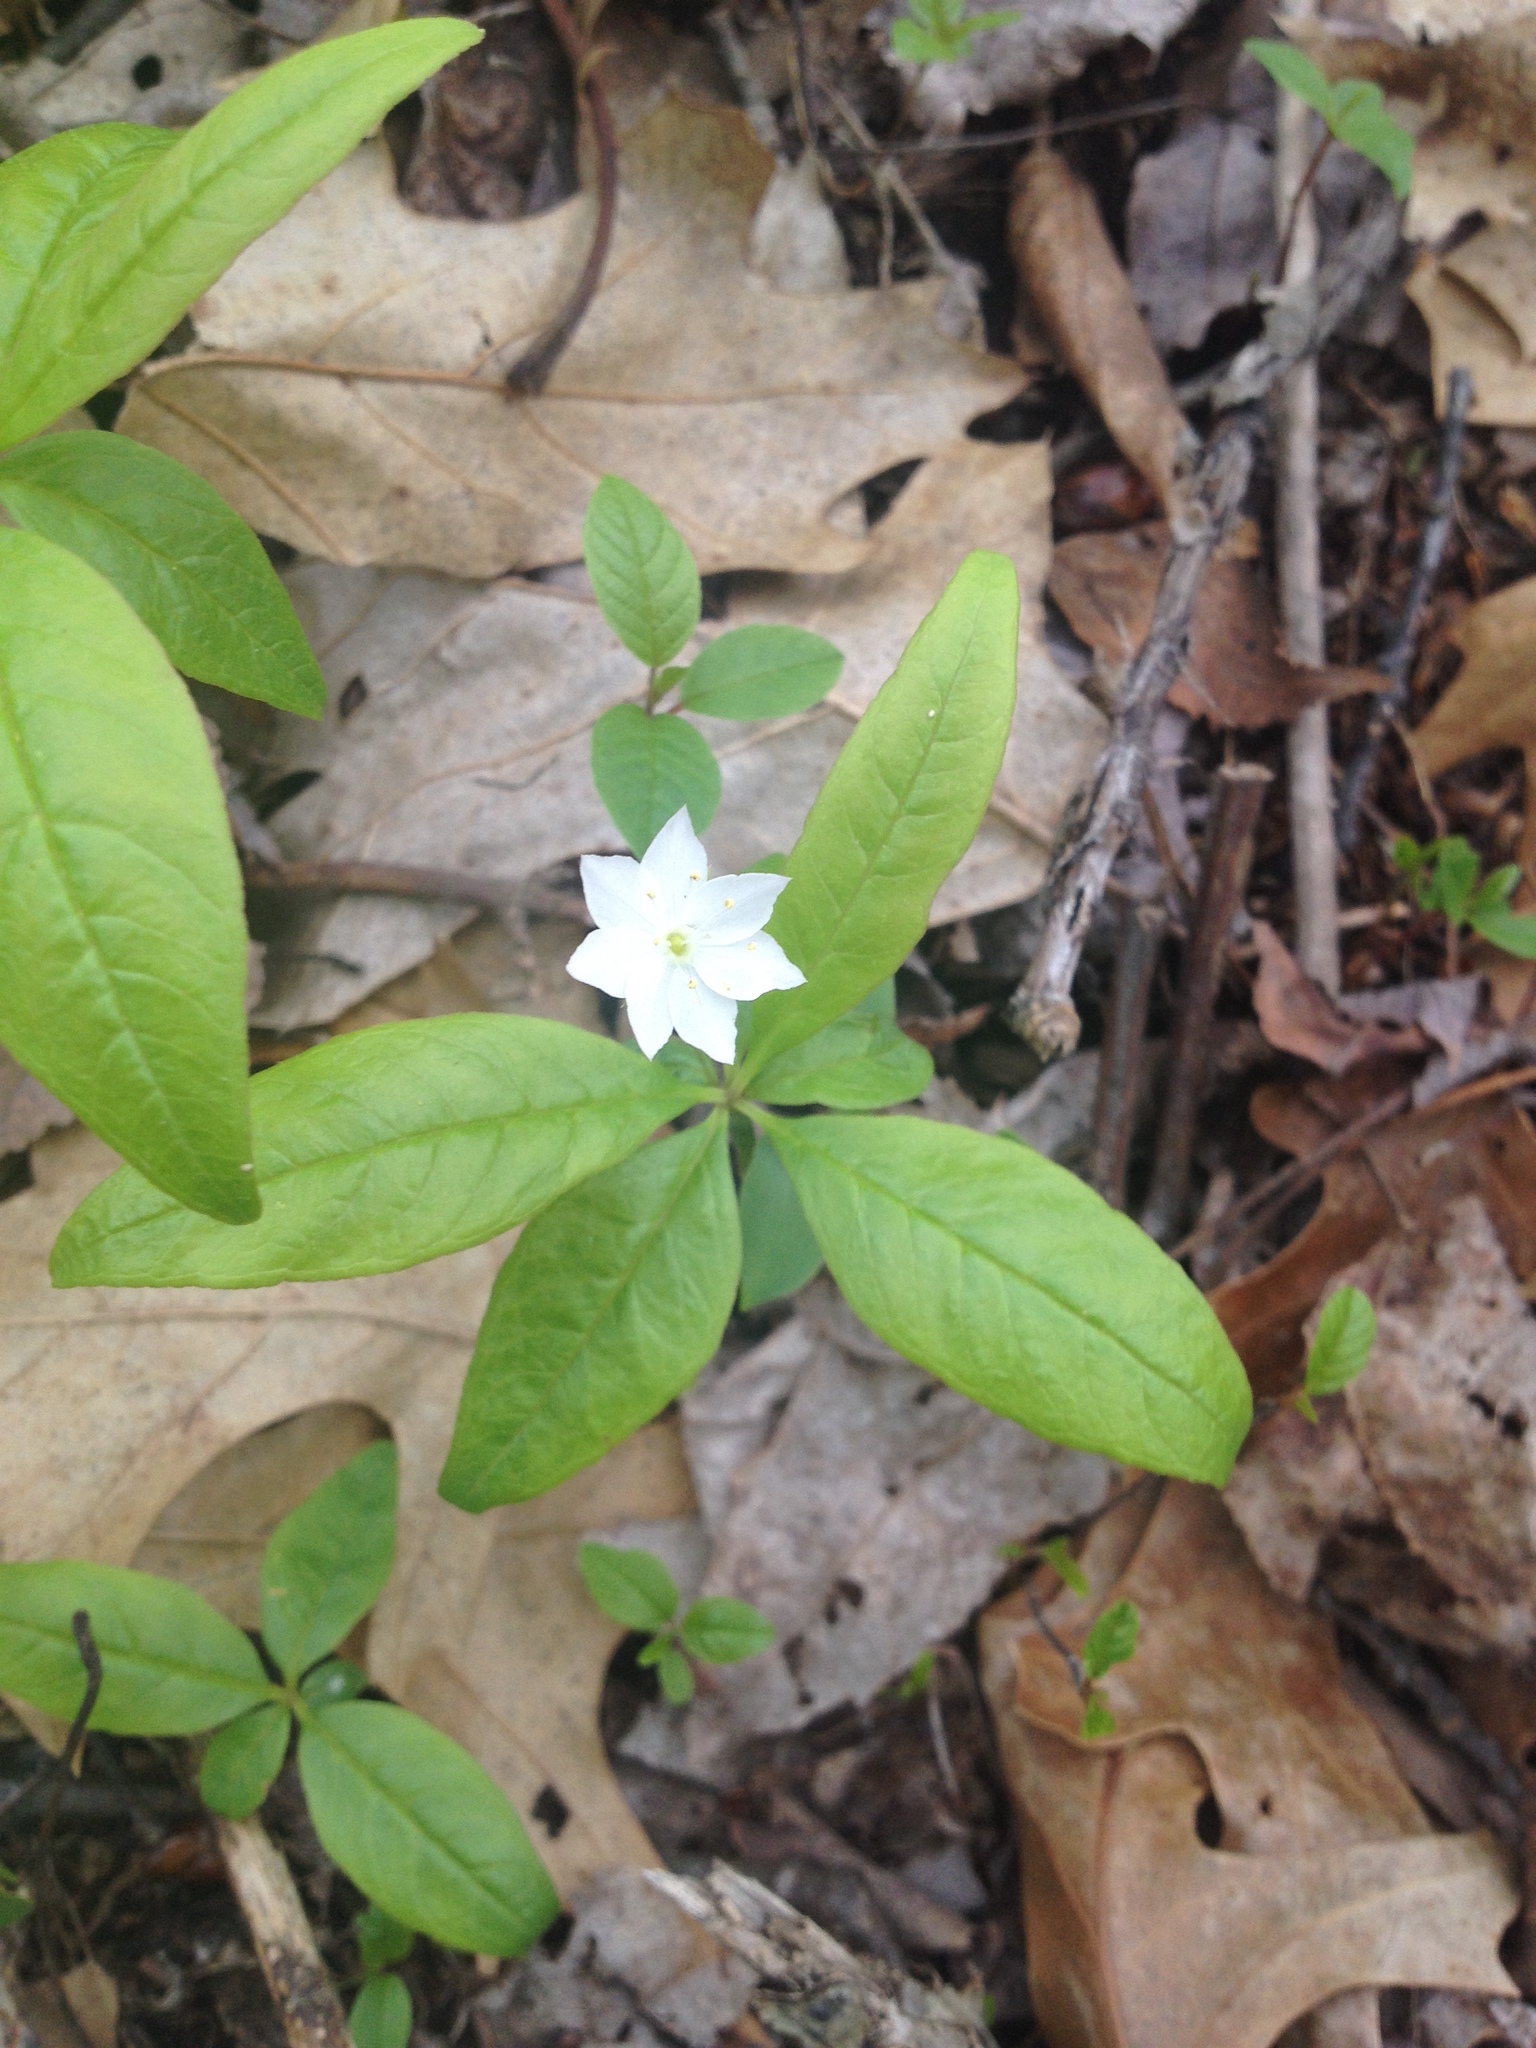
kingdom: Plantae
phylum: Tracheophyta
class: Magnoliopsida
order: Ericales
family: Primulaceae
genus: Lysimachia
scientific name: Lysimachia borealis
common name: American starflower
